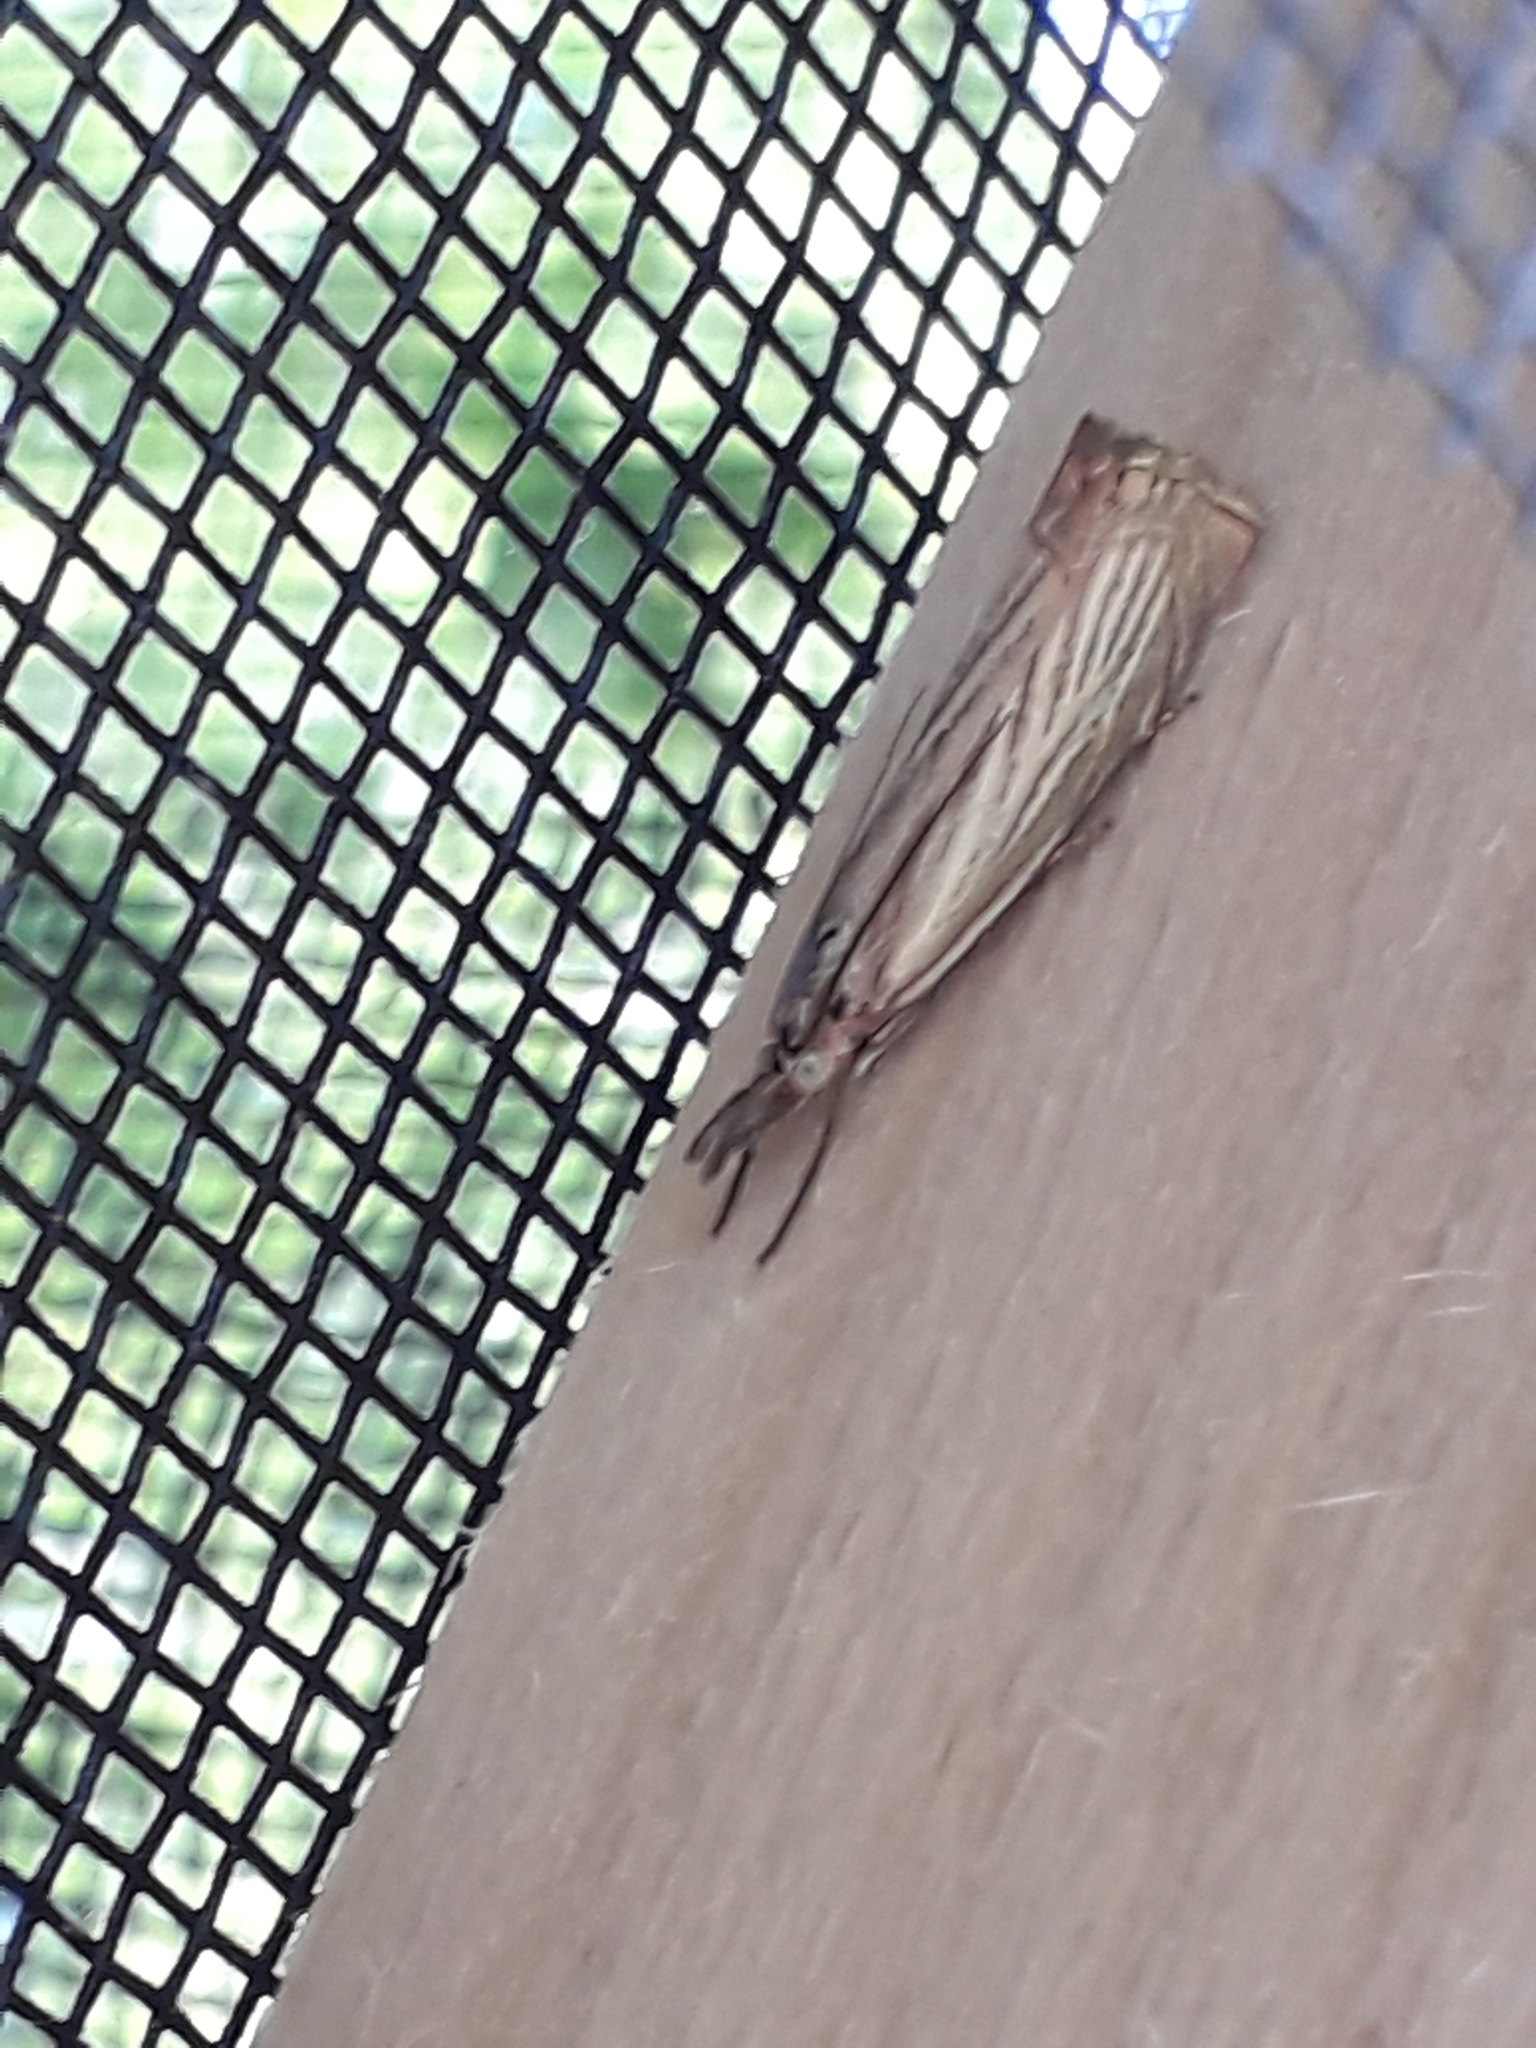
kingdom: Animalia
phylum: Arthropoda
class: Insecta
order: Lepidoptera
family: Crambidae
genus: Chrysoteuchia
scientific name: Chrysoteuchia culmella
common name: Garden grass-veneer
